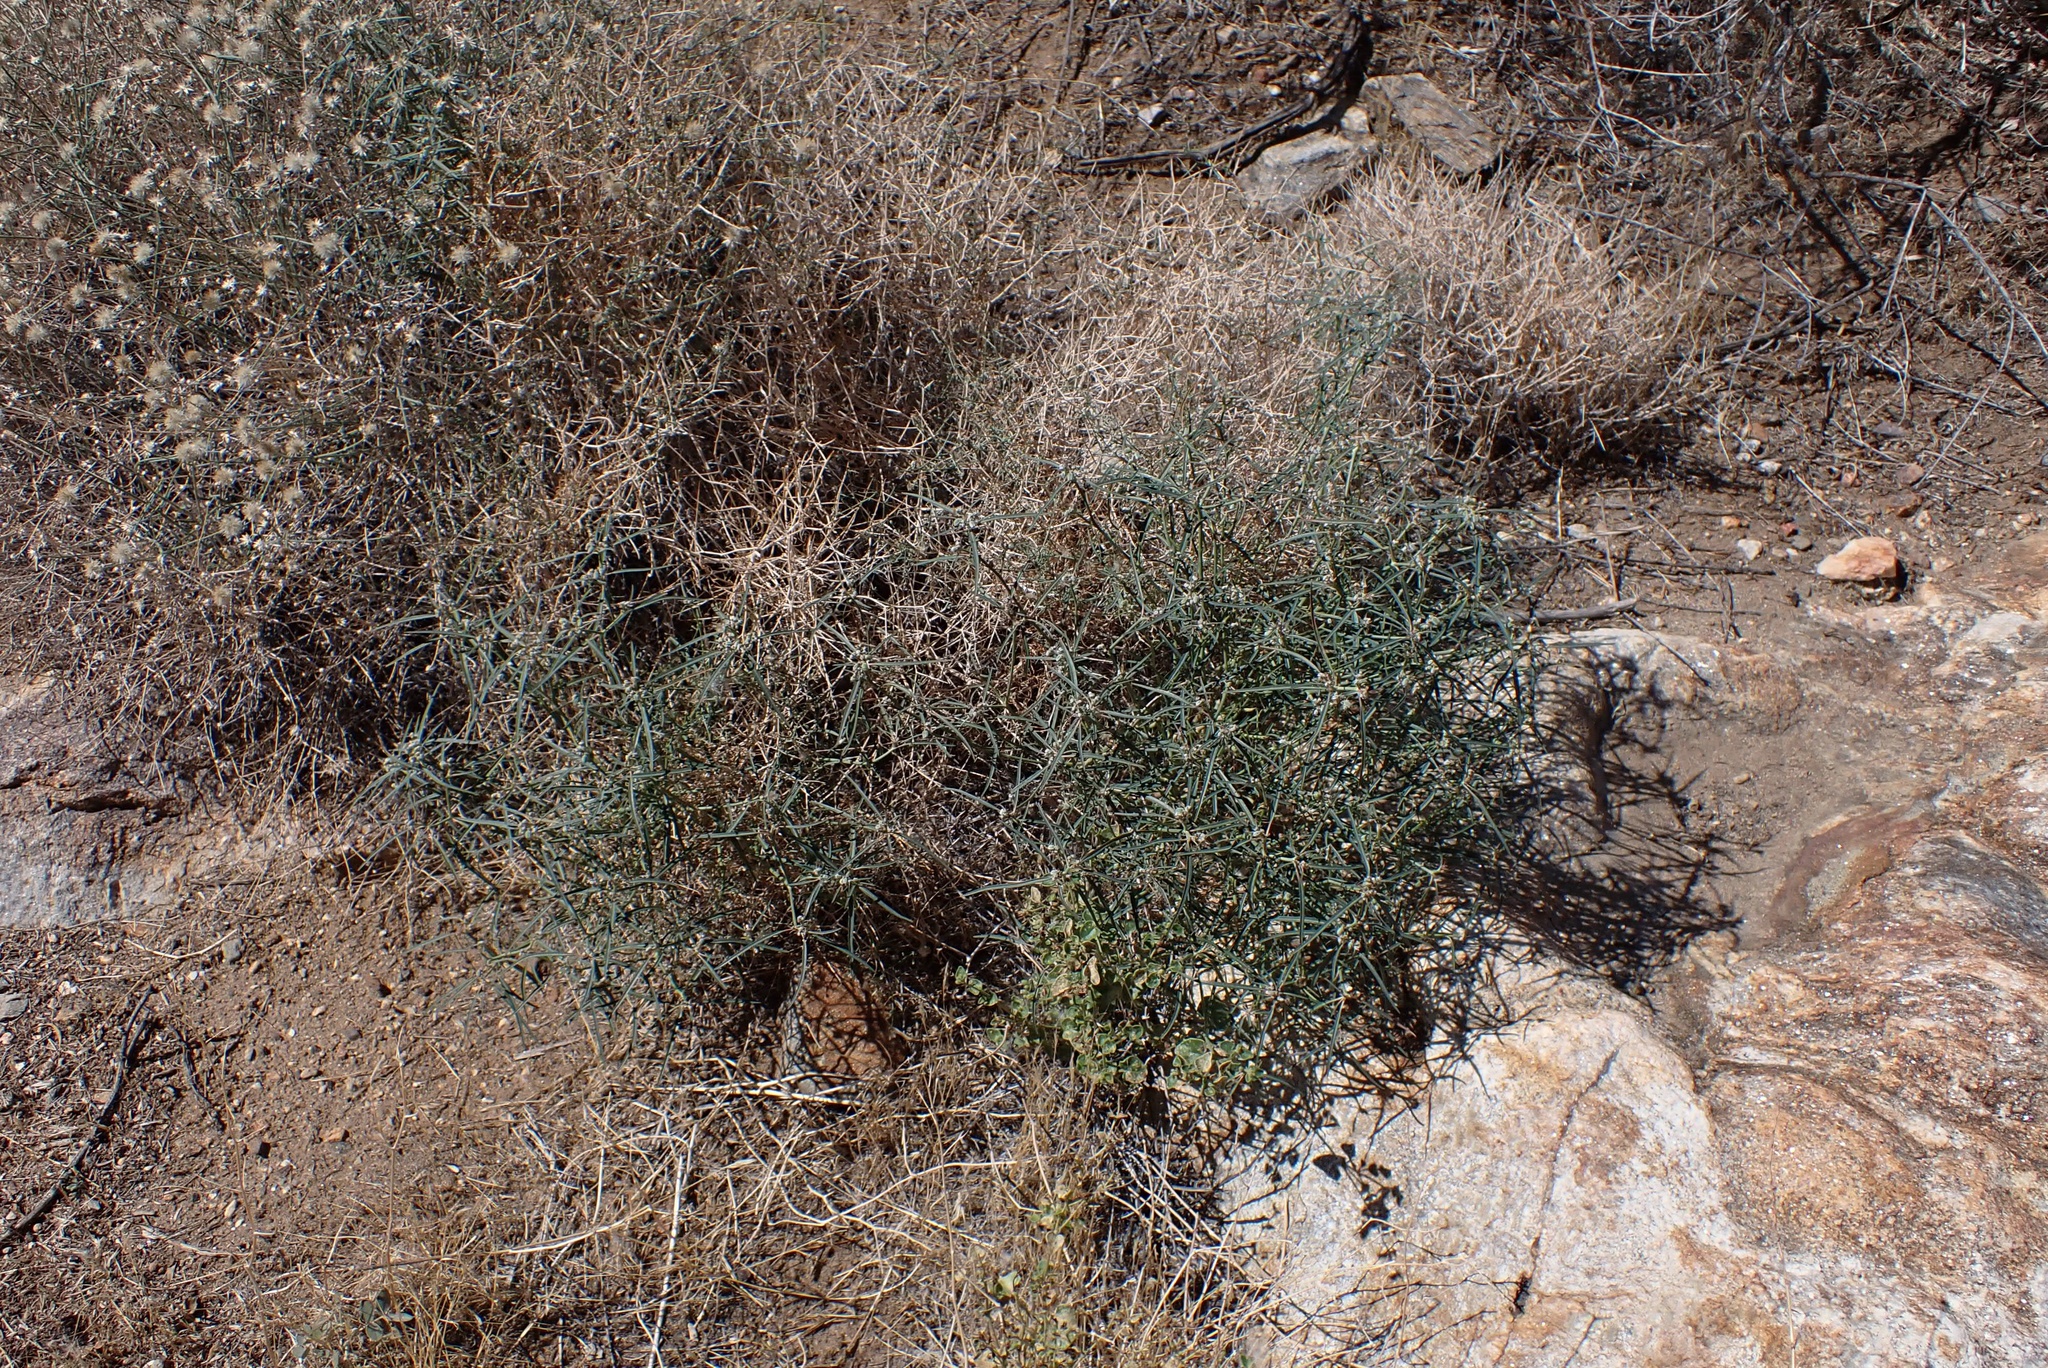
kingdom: Plantae
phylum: Tracheophyta
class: Magnoliopsida
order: Malpighiales
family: Euphorbiaceae
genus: Euphorbia
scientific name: Euphorbia eriantha
